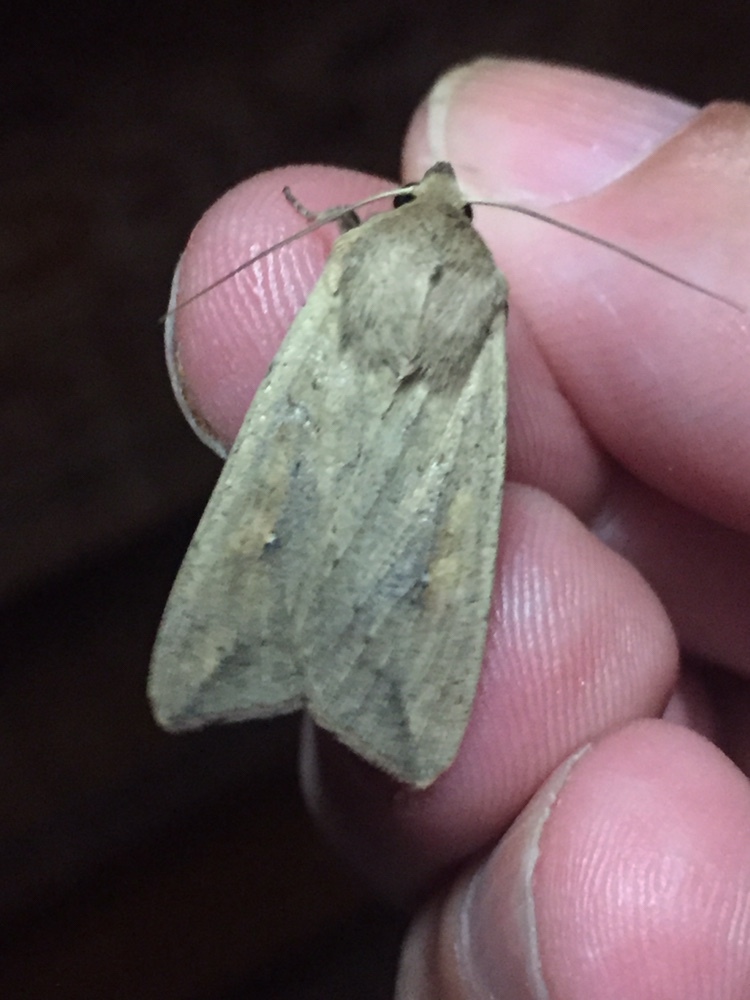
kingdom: Animalia
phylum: Arthropoda
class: Insecta
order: Lepidoptera
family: Noctuidae
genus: Mythimna
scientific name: Mythimna separata
